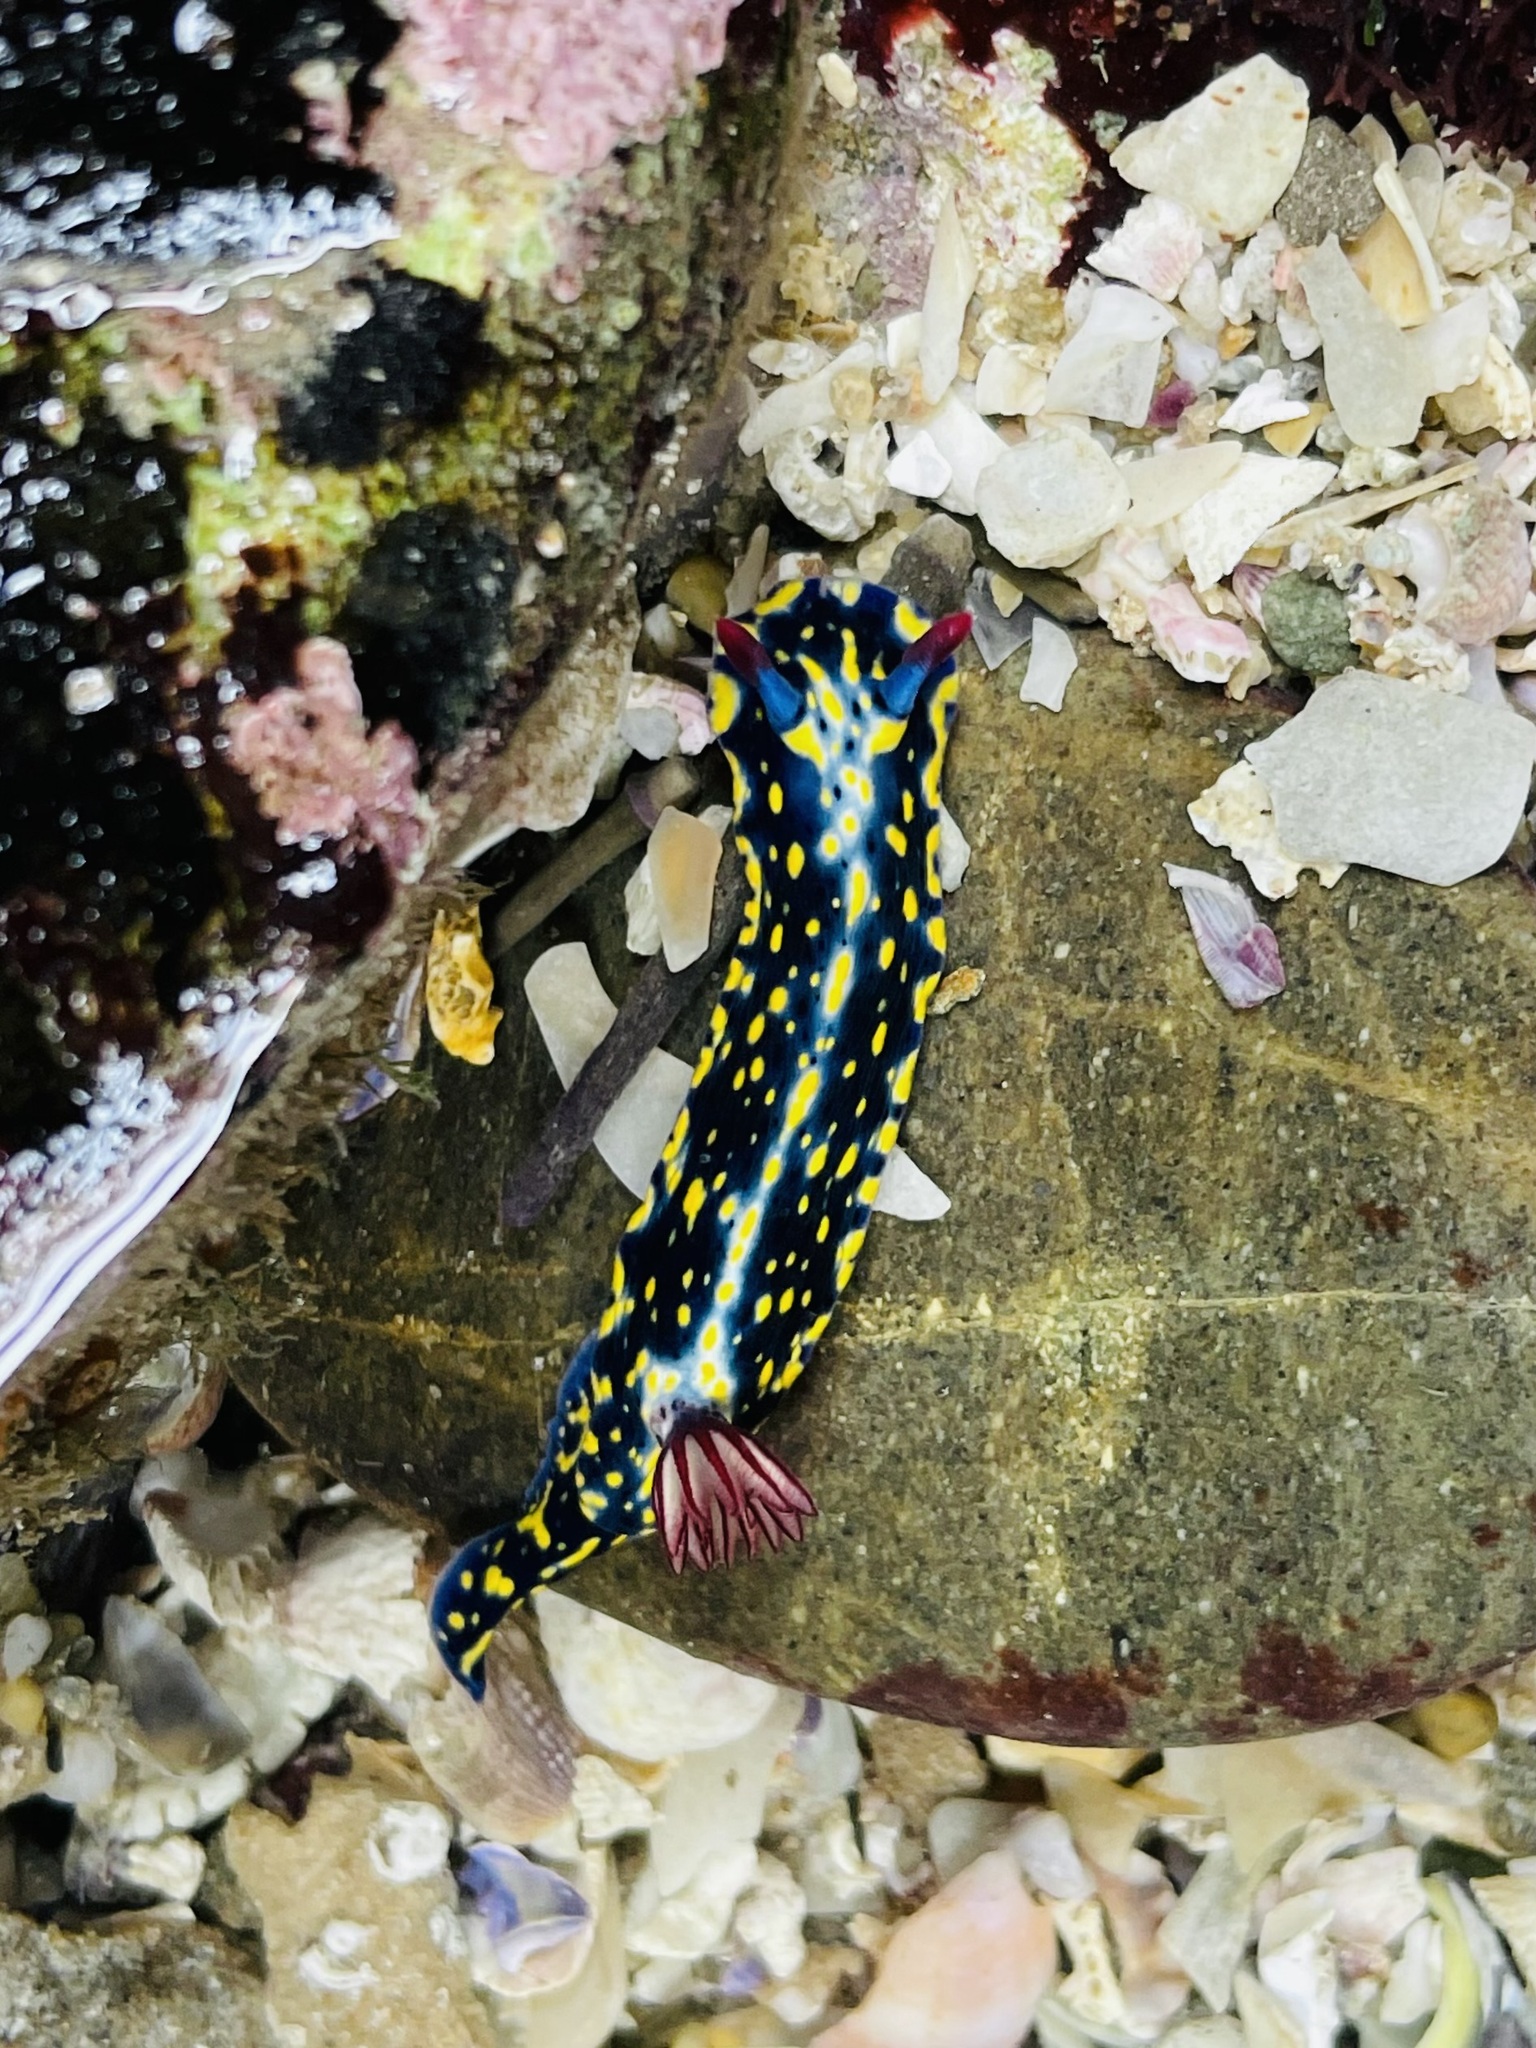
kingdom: Animalia
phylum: Mollusca
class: Gastropoda
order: Nudibranchia
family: Chromodorididae
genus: Hypselodoris
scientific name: Hypselodoris obscura
